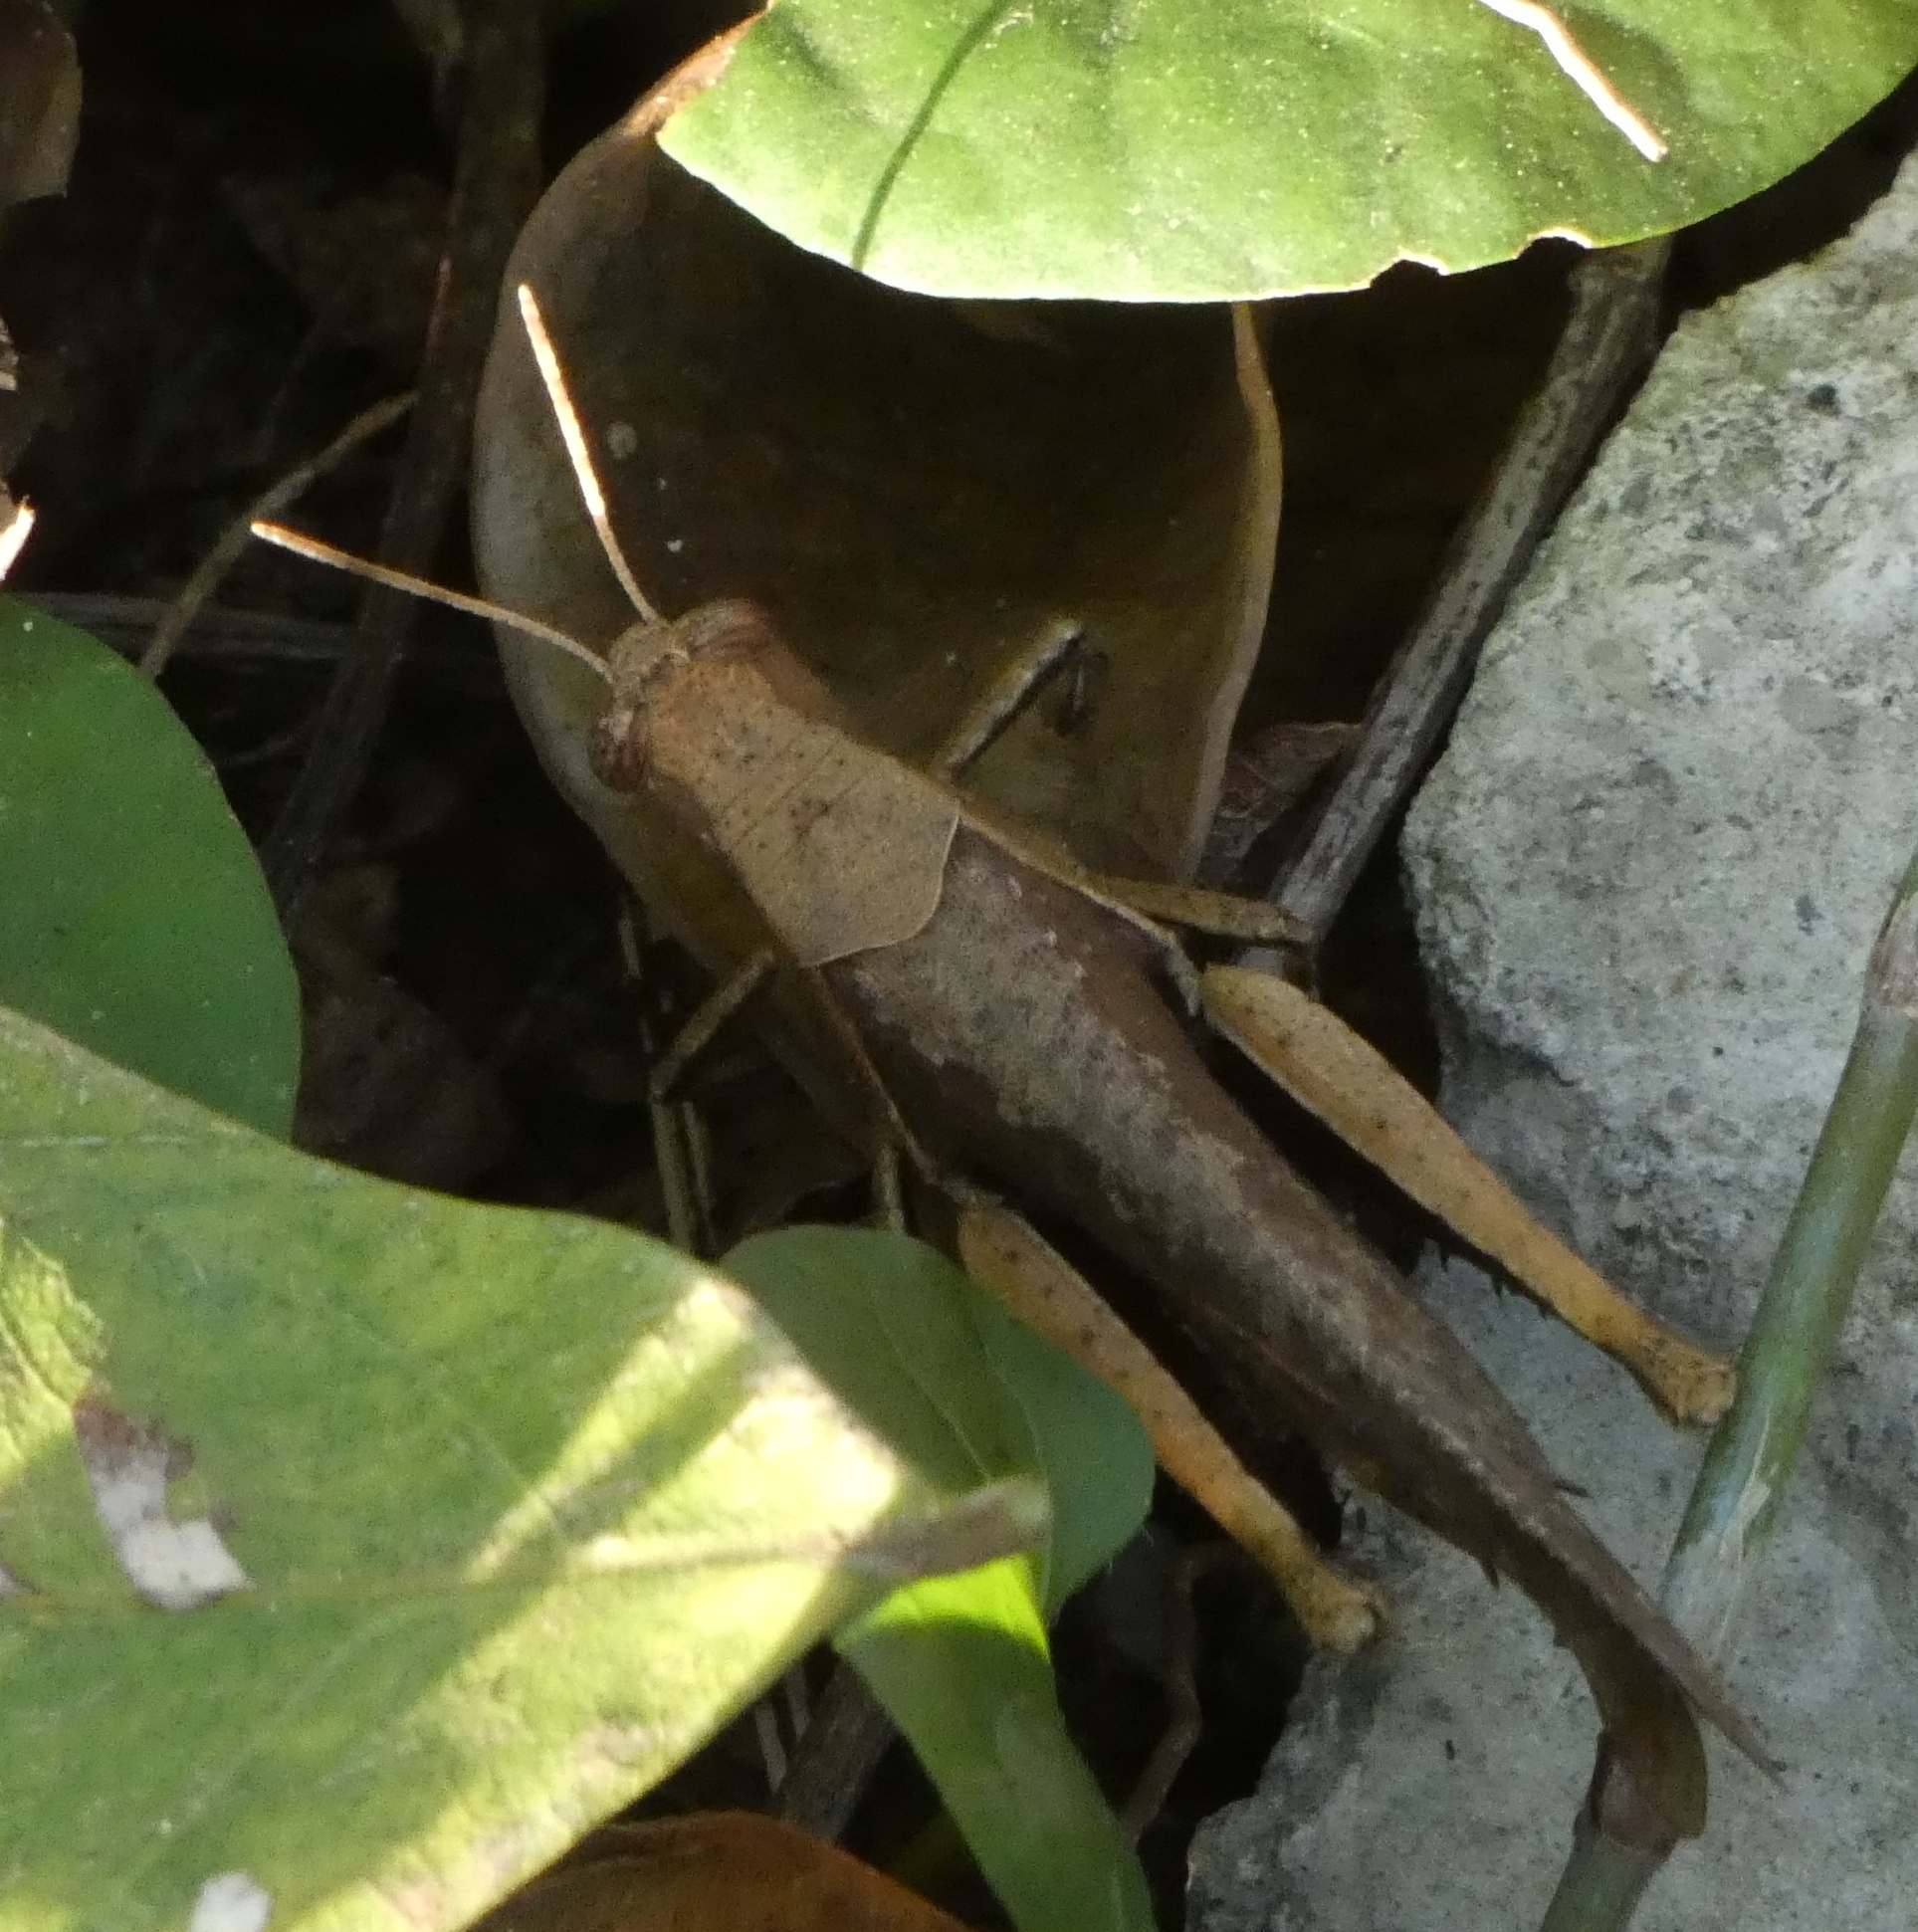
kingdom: Animalia
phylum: Arthropoda
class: Insecta
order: Orthoptera
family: Acrididae
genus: Abracris
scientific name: Abracris flavolineata
